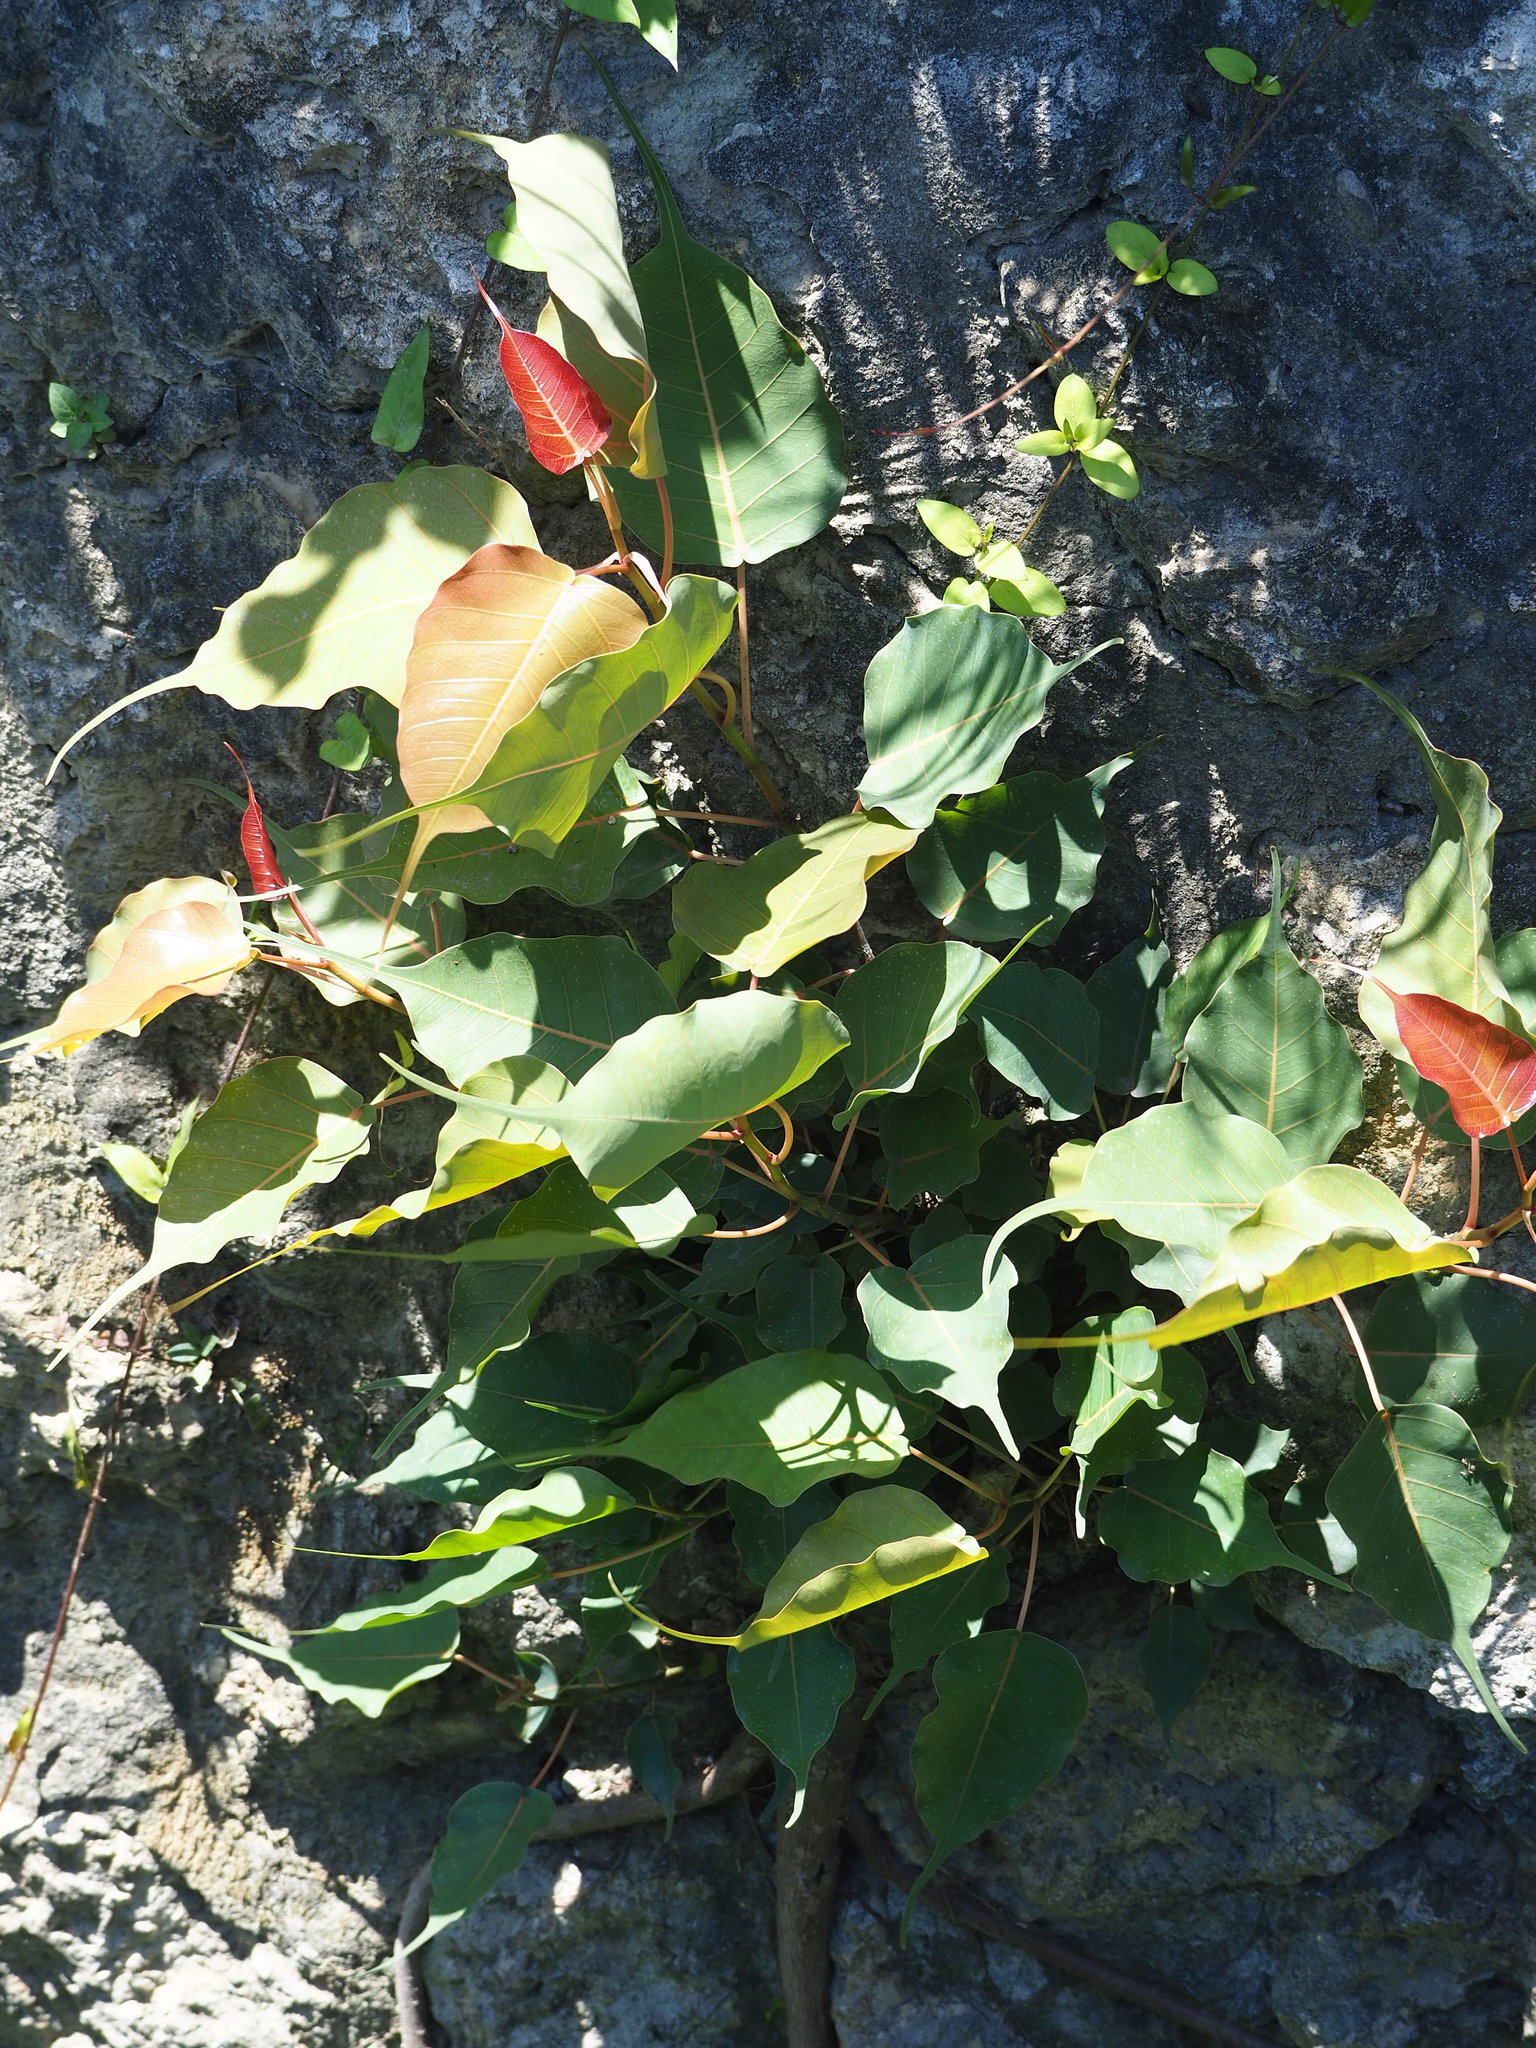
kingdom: Plantae
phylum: Tracheophyta
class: Magnoliopsida
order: Rosales
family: Moraceae
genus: Ficus
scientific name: Ficus religiosa
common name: Bodhi tree
